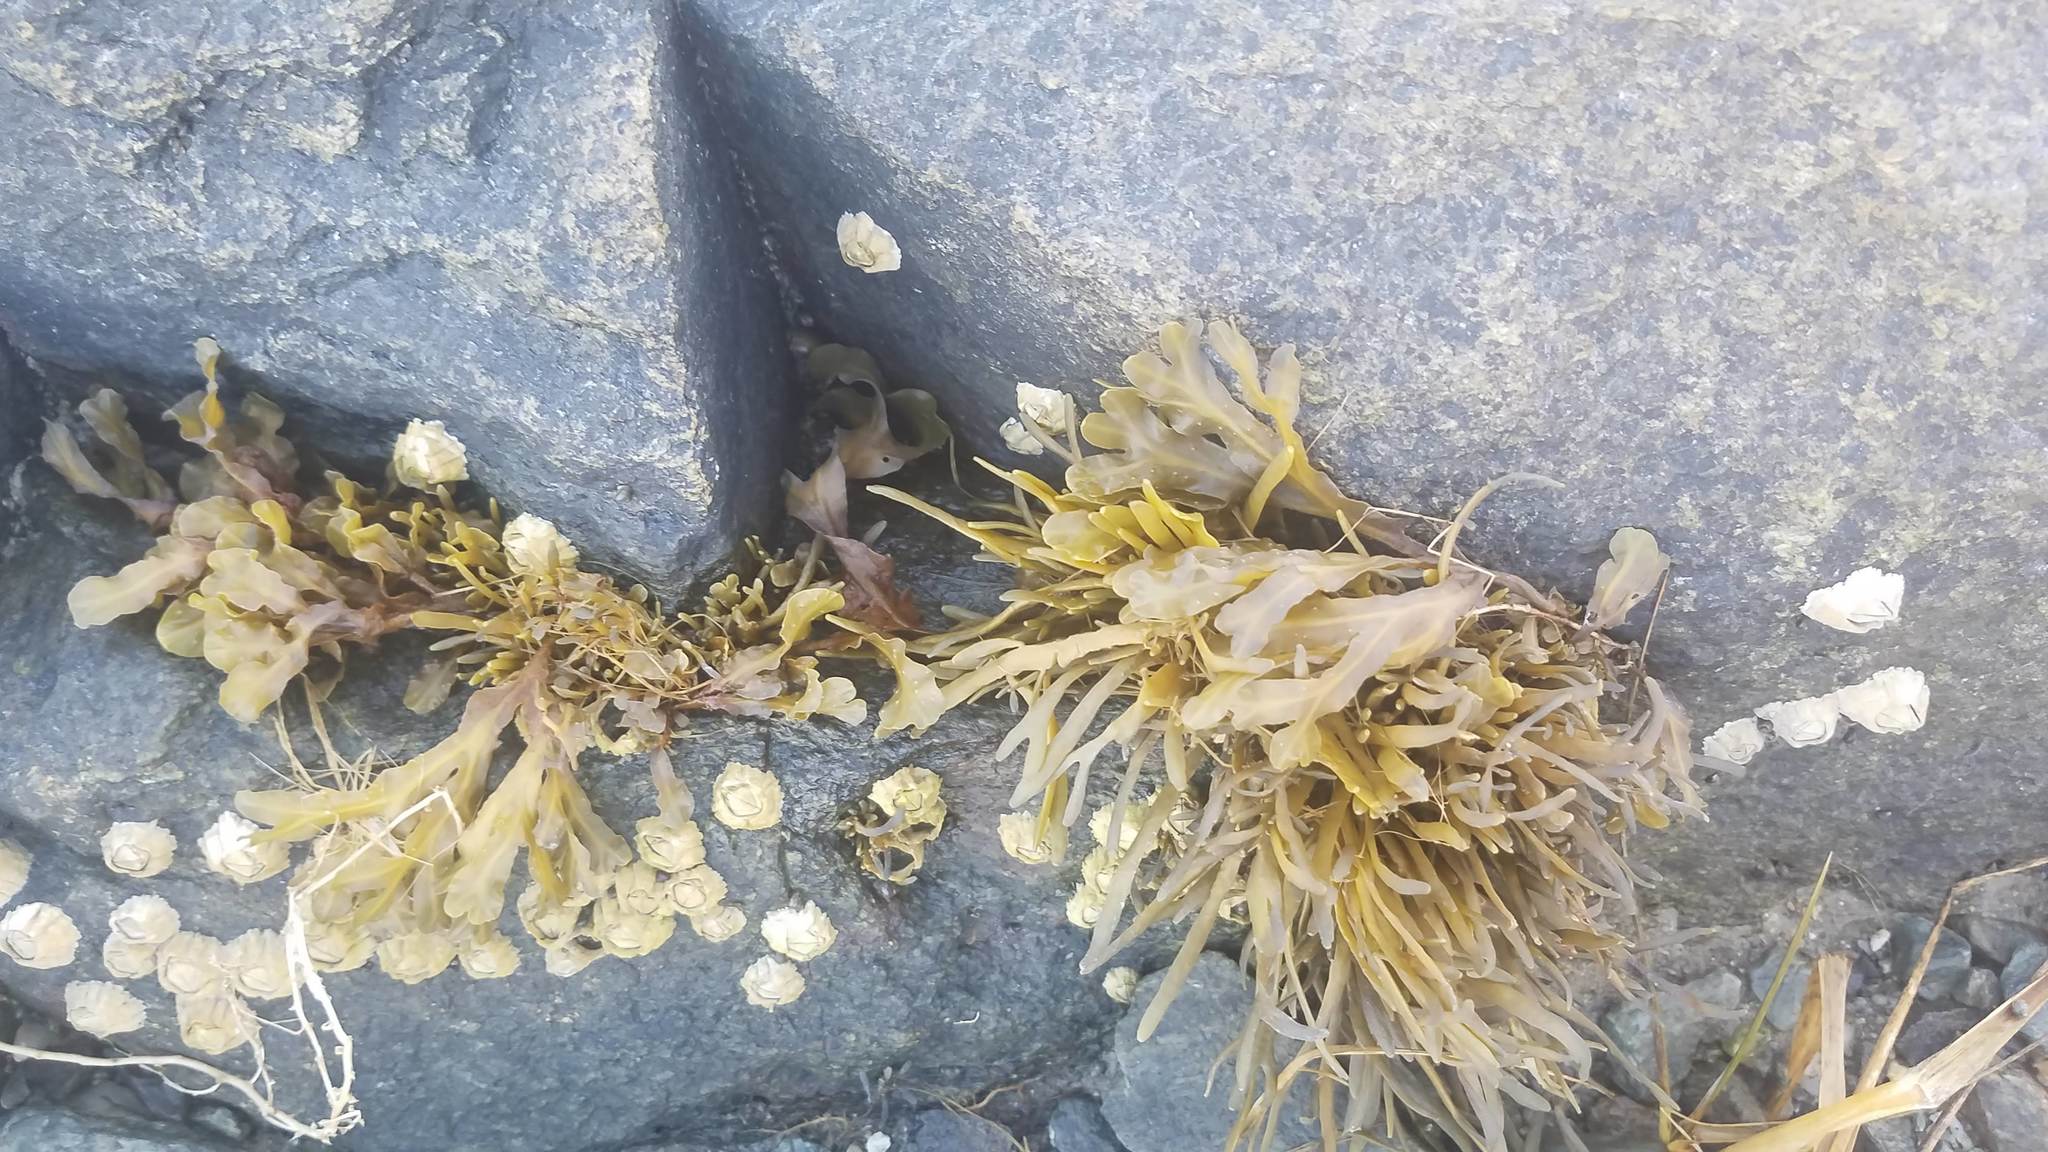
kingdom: Chromista
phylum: Ochrophyta
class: Phaeophyceae
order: Fucales
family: Fucaceae
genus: Ascophyllum
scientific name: Ascophyllum nodosum
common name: Knotted wrack
